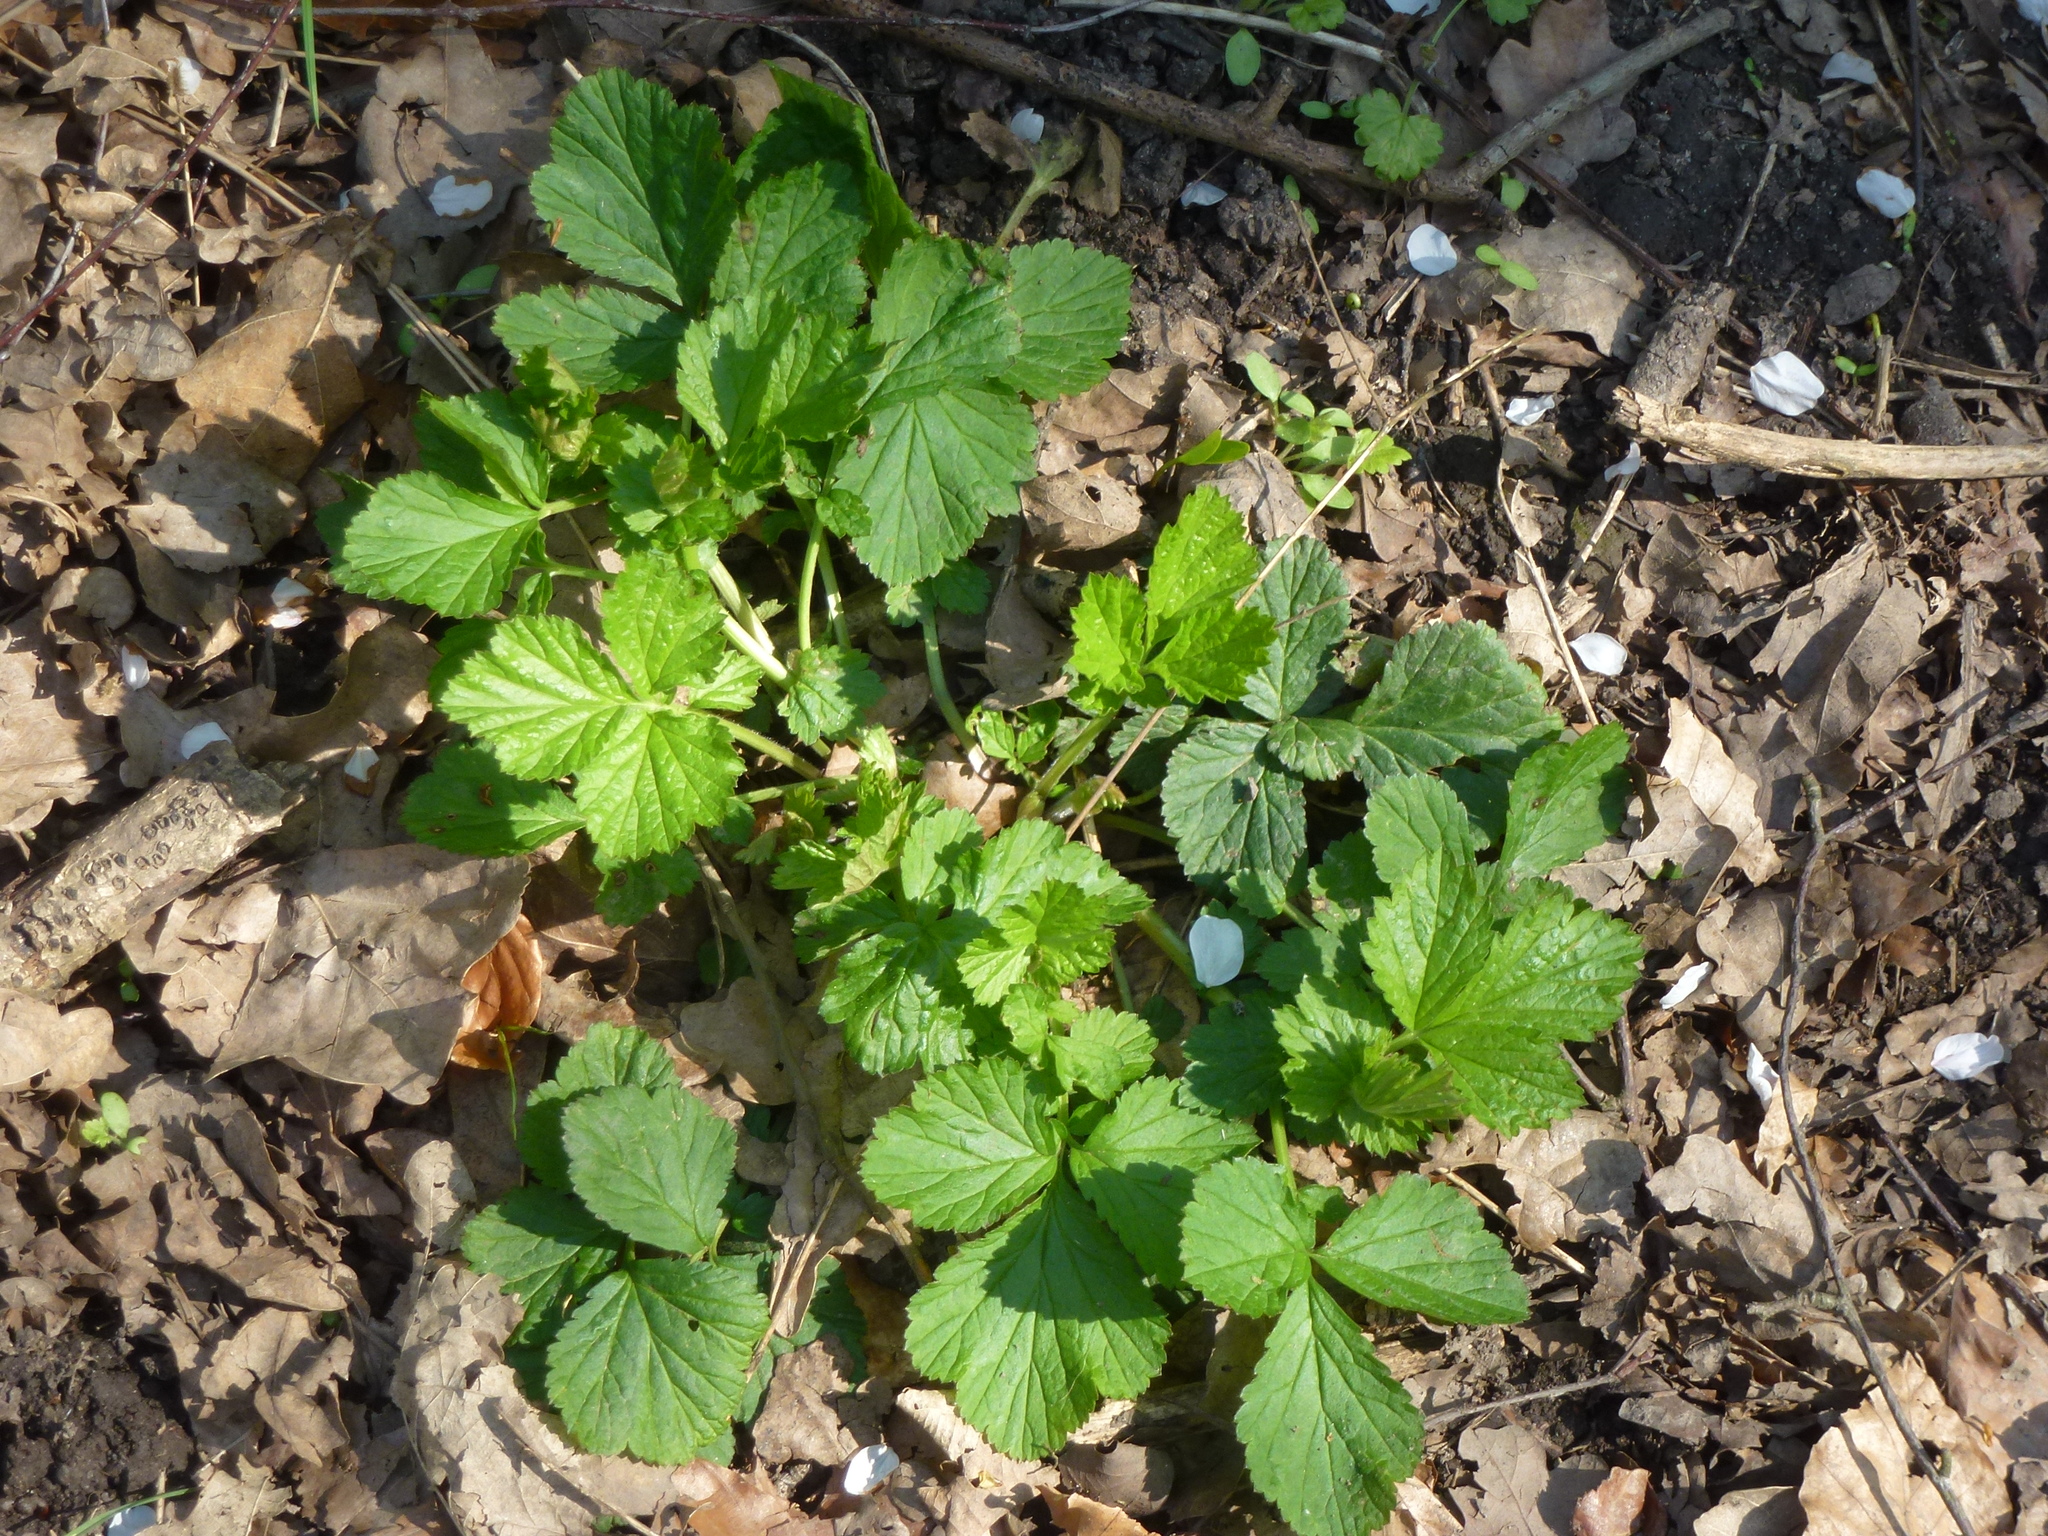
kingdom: Plantae
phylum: Tracheophyta
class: Magnoliopsida
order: Rosales
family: Rosaceae
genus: Geum
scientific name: Geum urbanum
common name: Wood avens
